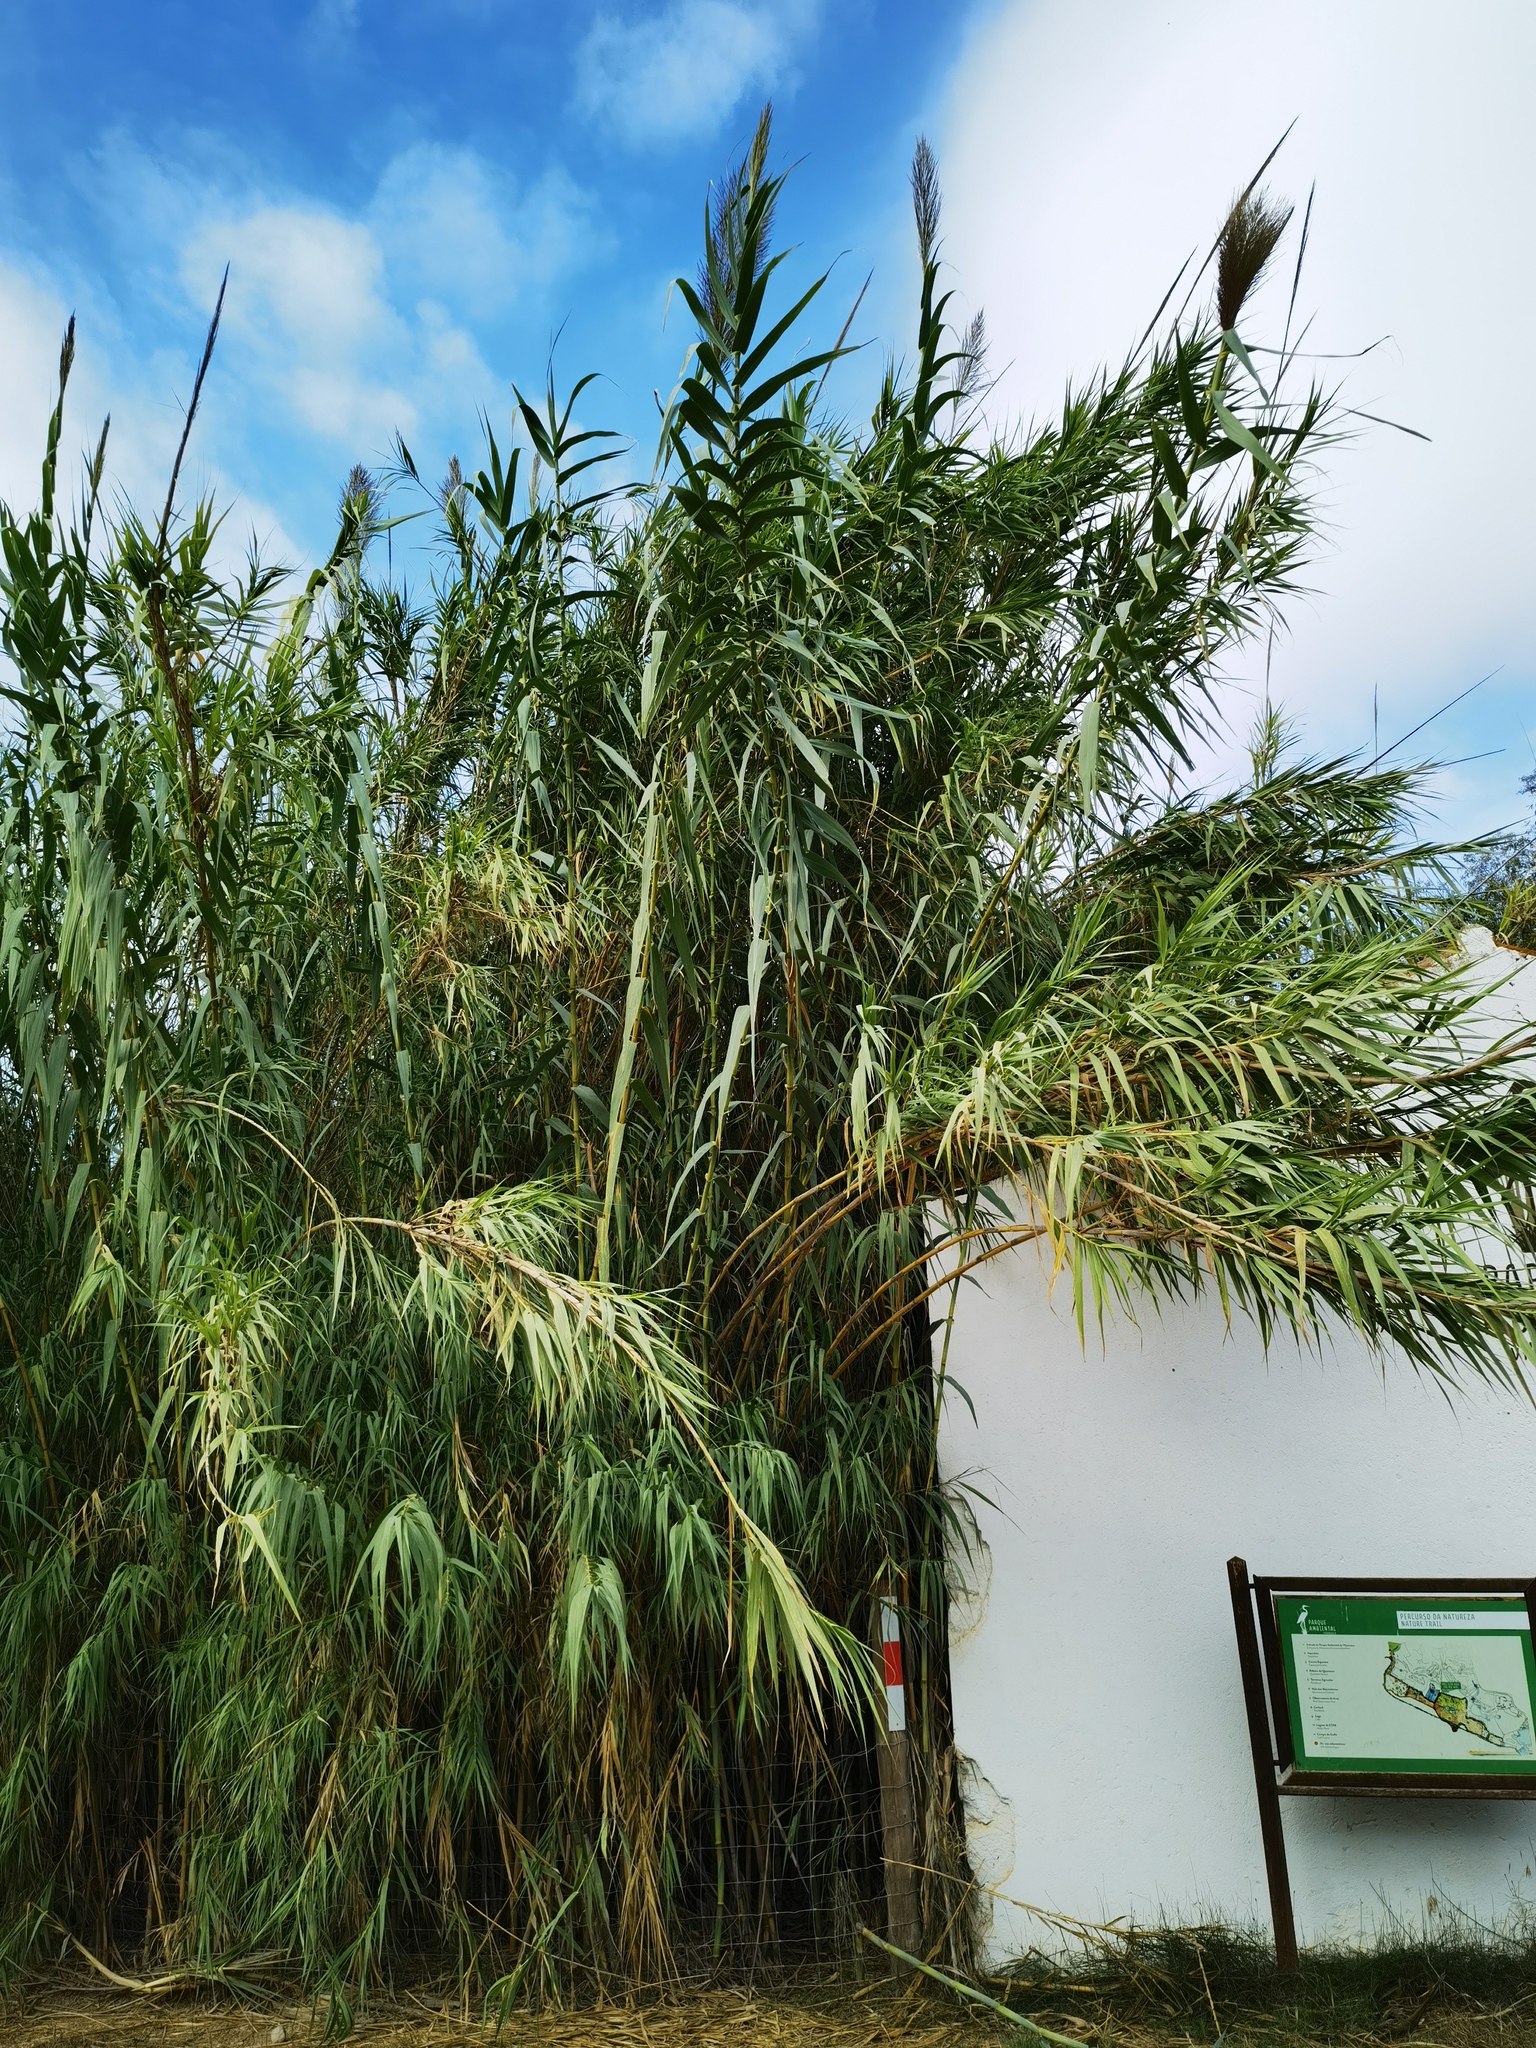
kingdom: Plantae
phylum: Tracheophyta
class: Liliopsida
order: Poales
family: Poaceae
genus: Arundo
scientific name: Arundo donax
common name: Giant reed
